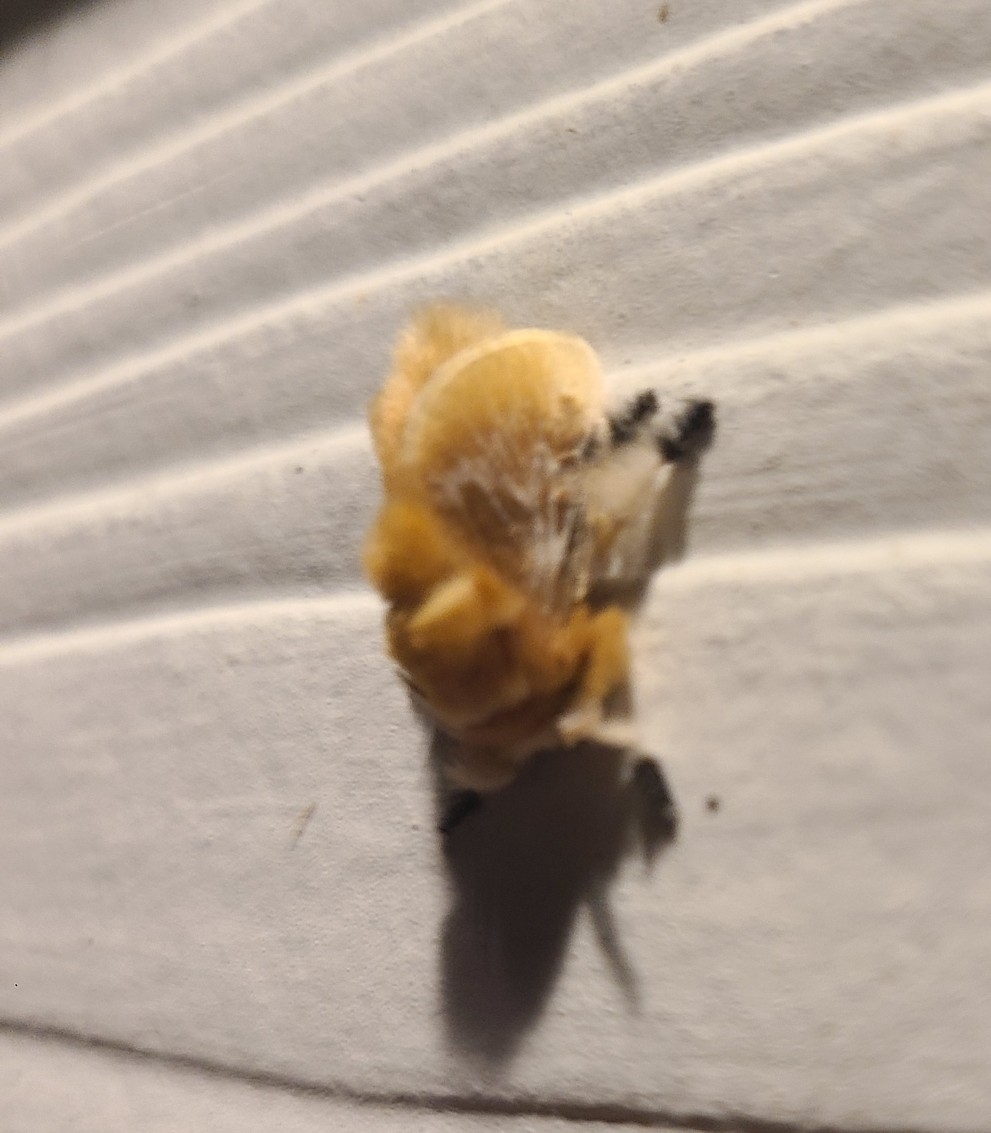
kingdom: Animalia
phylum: Arthropoda
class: Insecta
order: Lepidoptera
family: Megalopygidae
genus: Megalopyge
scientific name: Megalopyge opercularis
